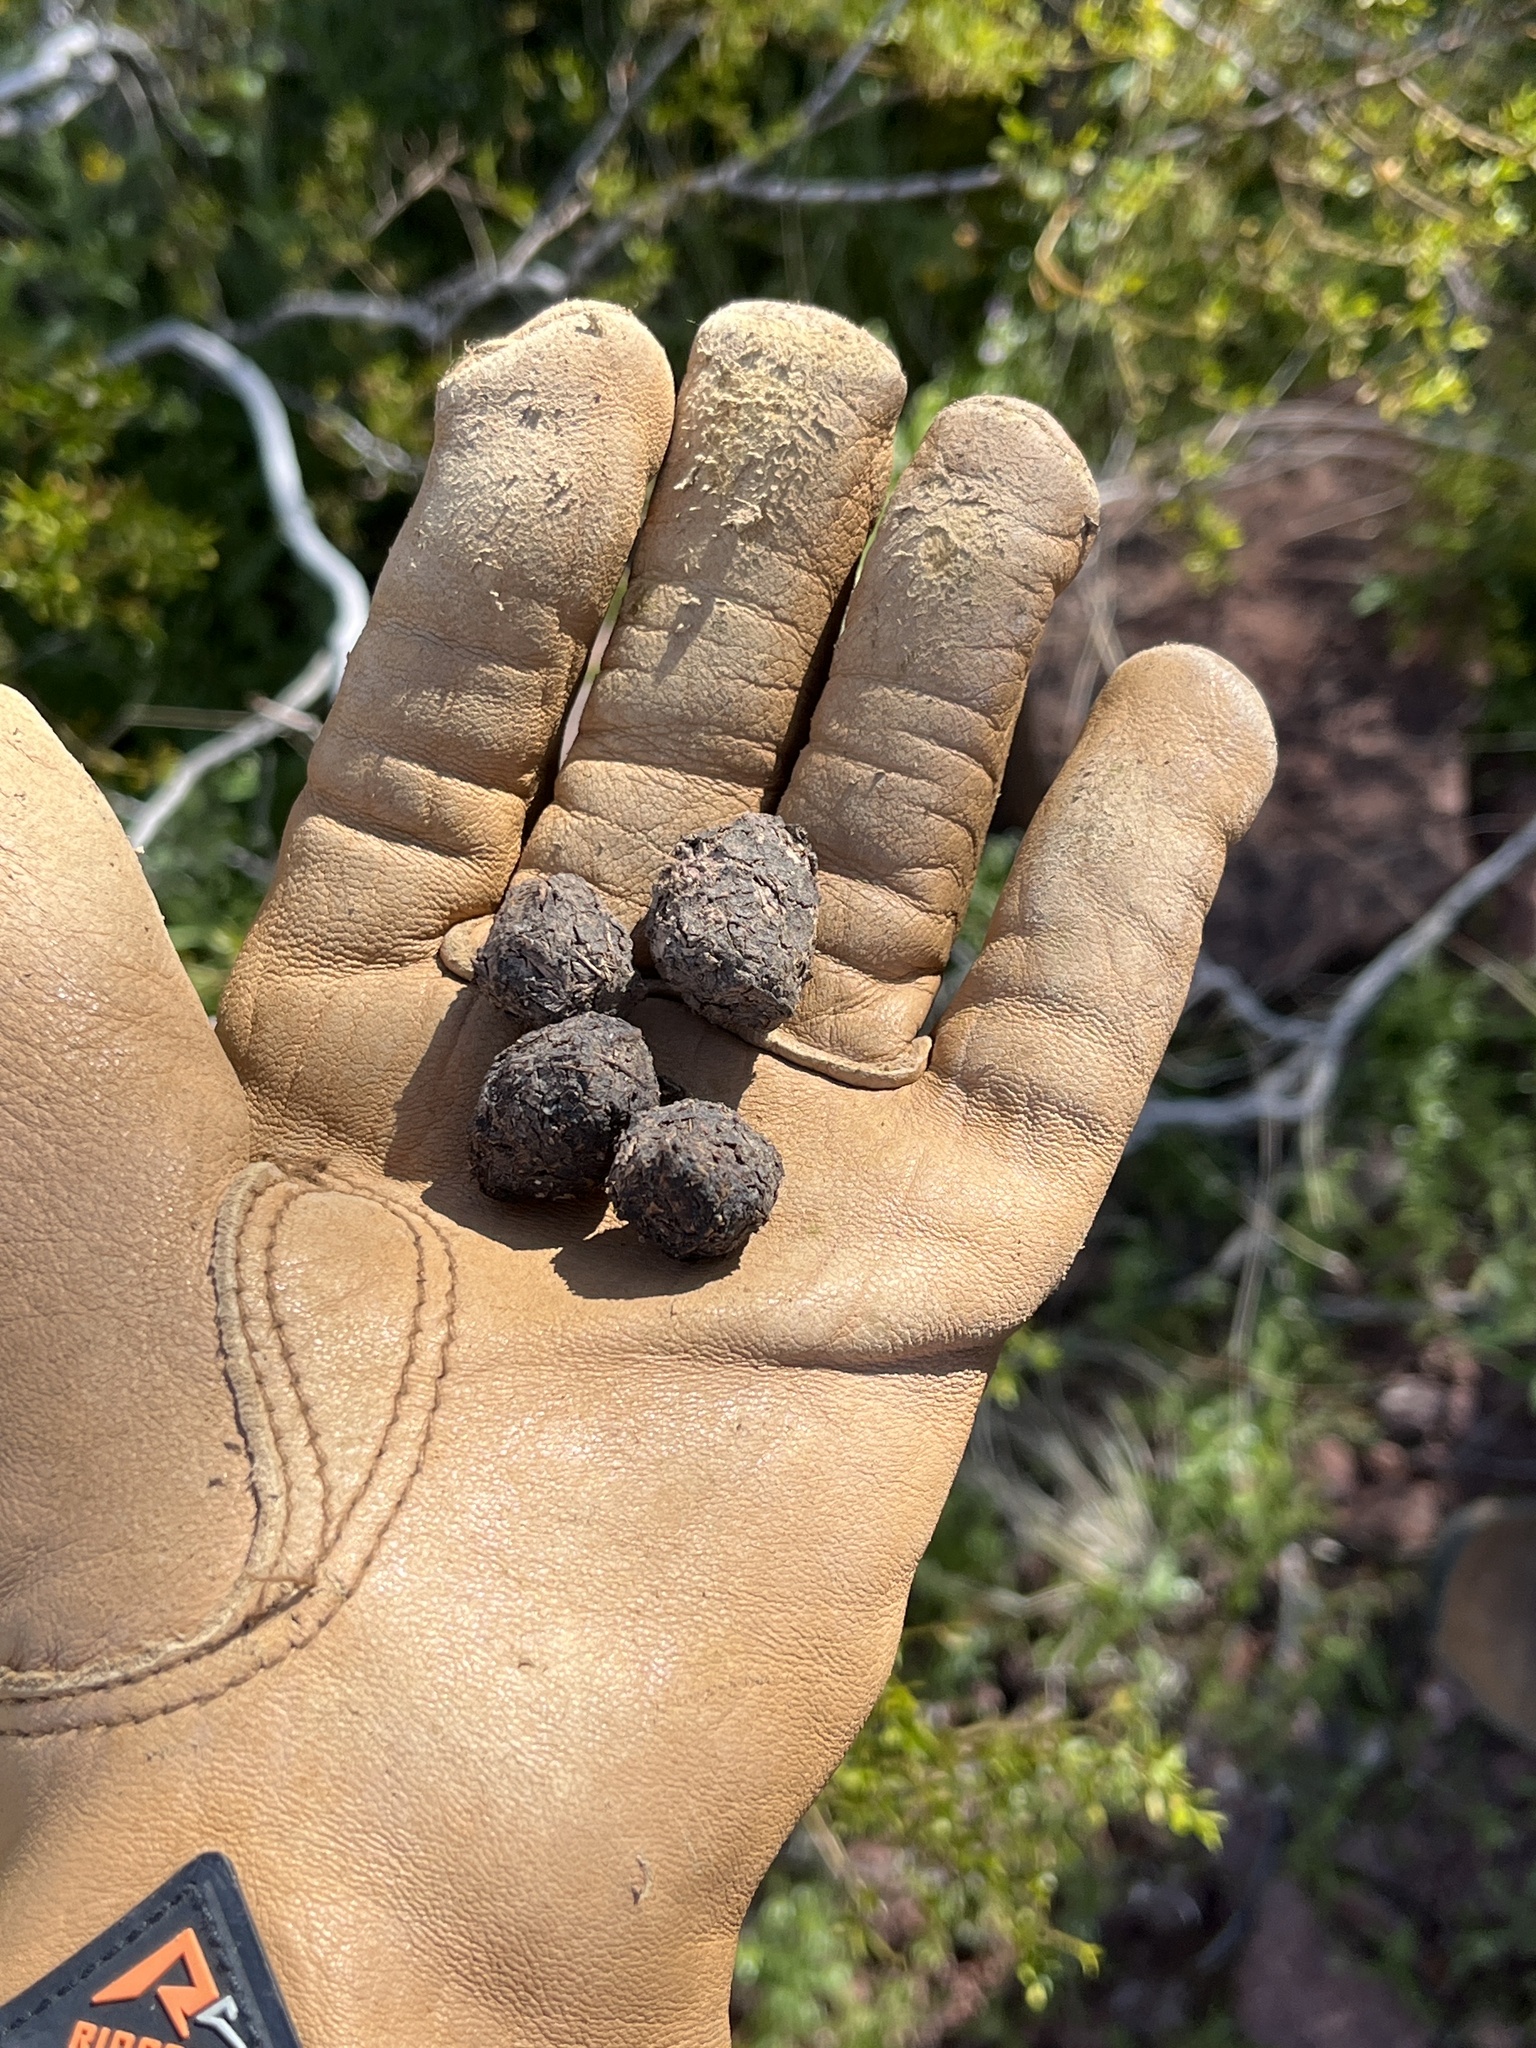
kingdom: Animalia
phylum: Chordata
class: Testudines
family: Testudinidae
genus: Gopherus
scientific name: Gopherus morafkai
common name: Sonoran desert tortoise
